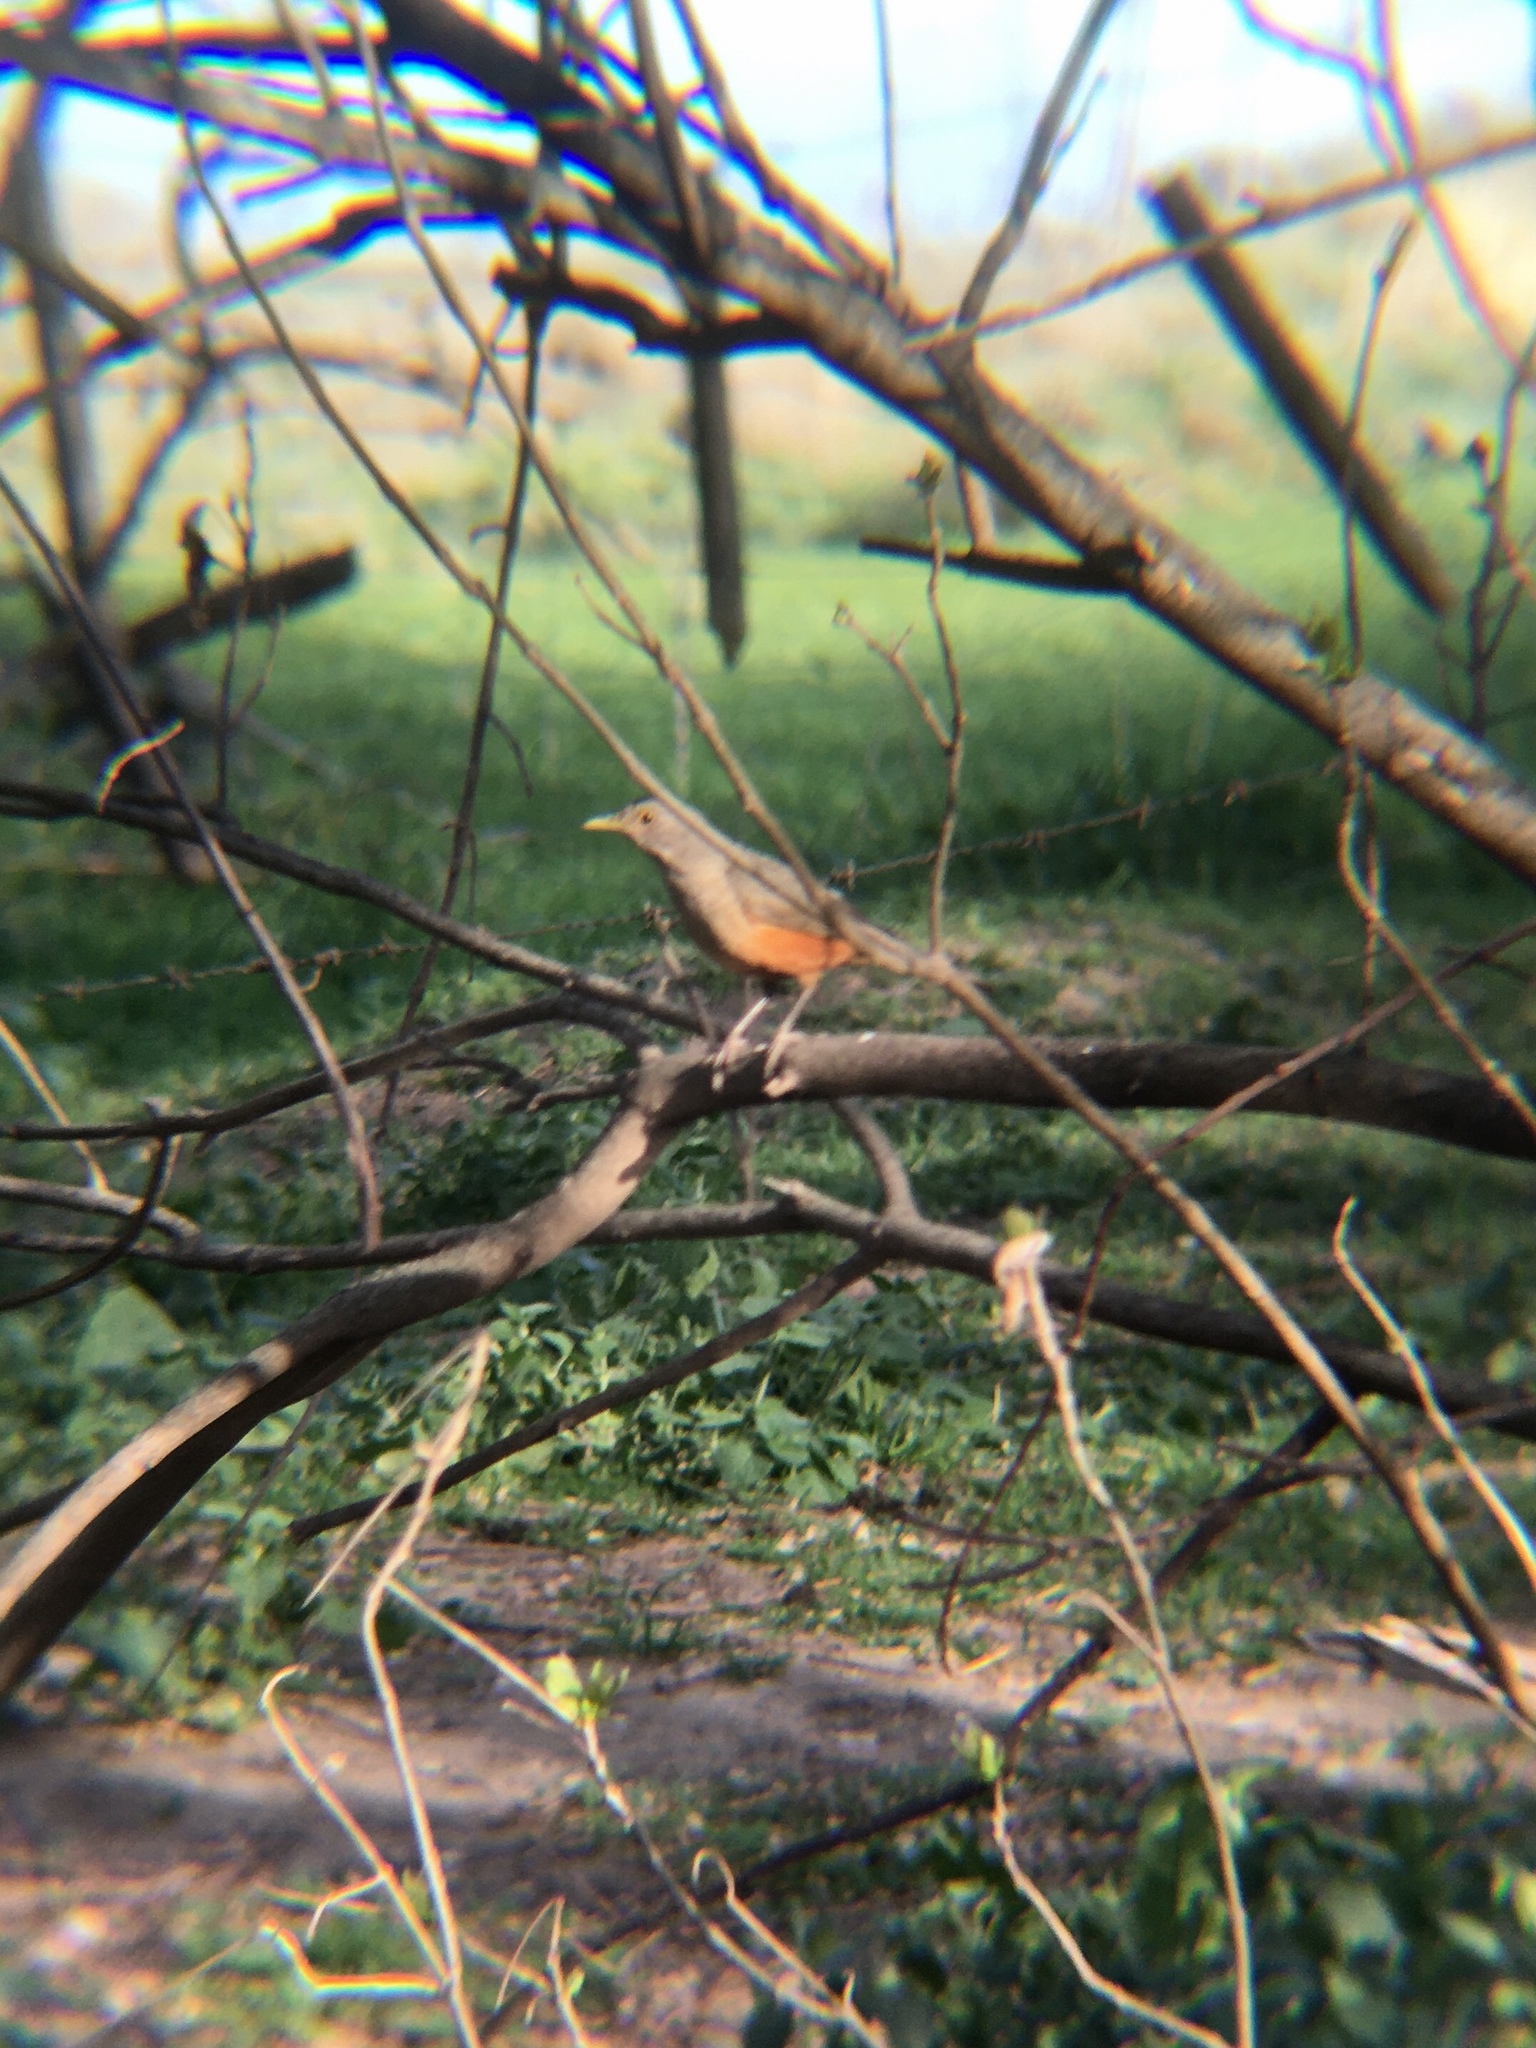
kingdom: Animalia
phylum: Chordata
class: Aves
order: Passeriformes
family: Turdidae
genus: Turdus
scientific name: Turdus rufiventris
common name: Rufous-bellied thrush
